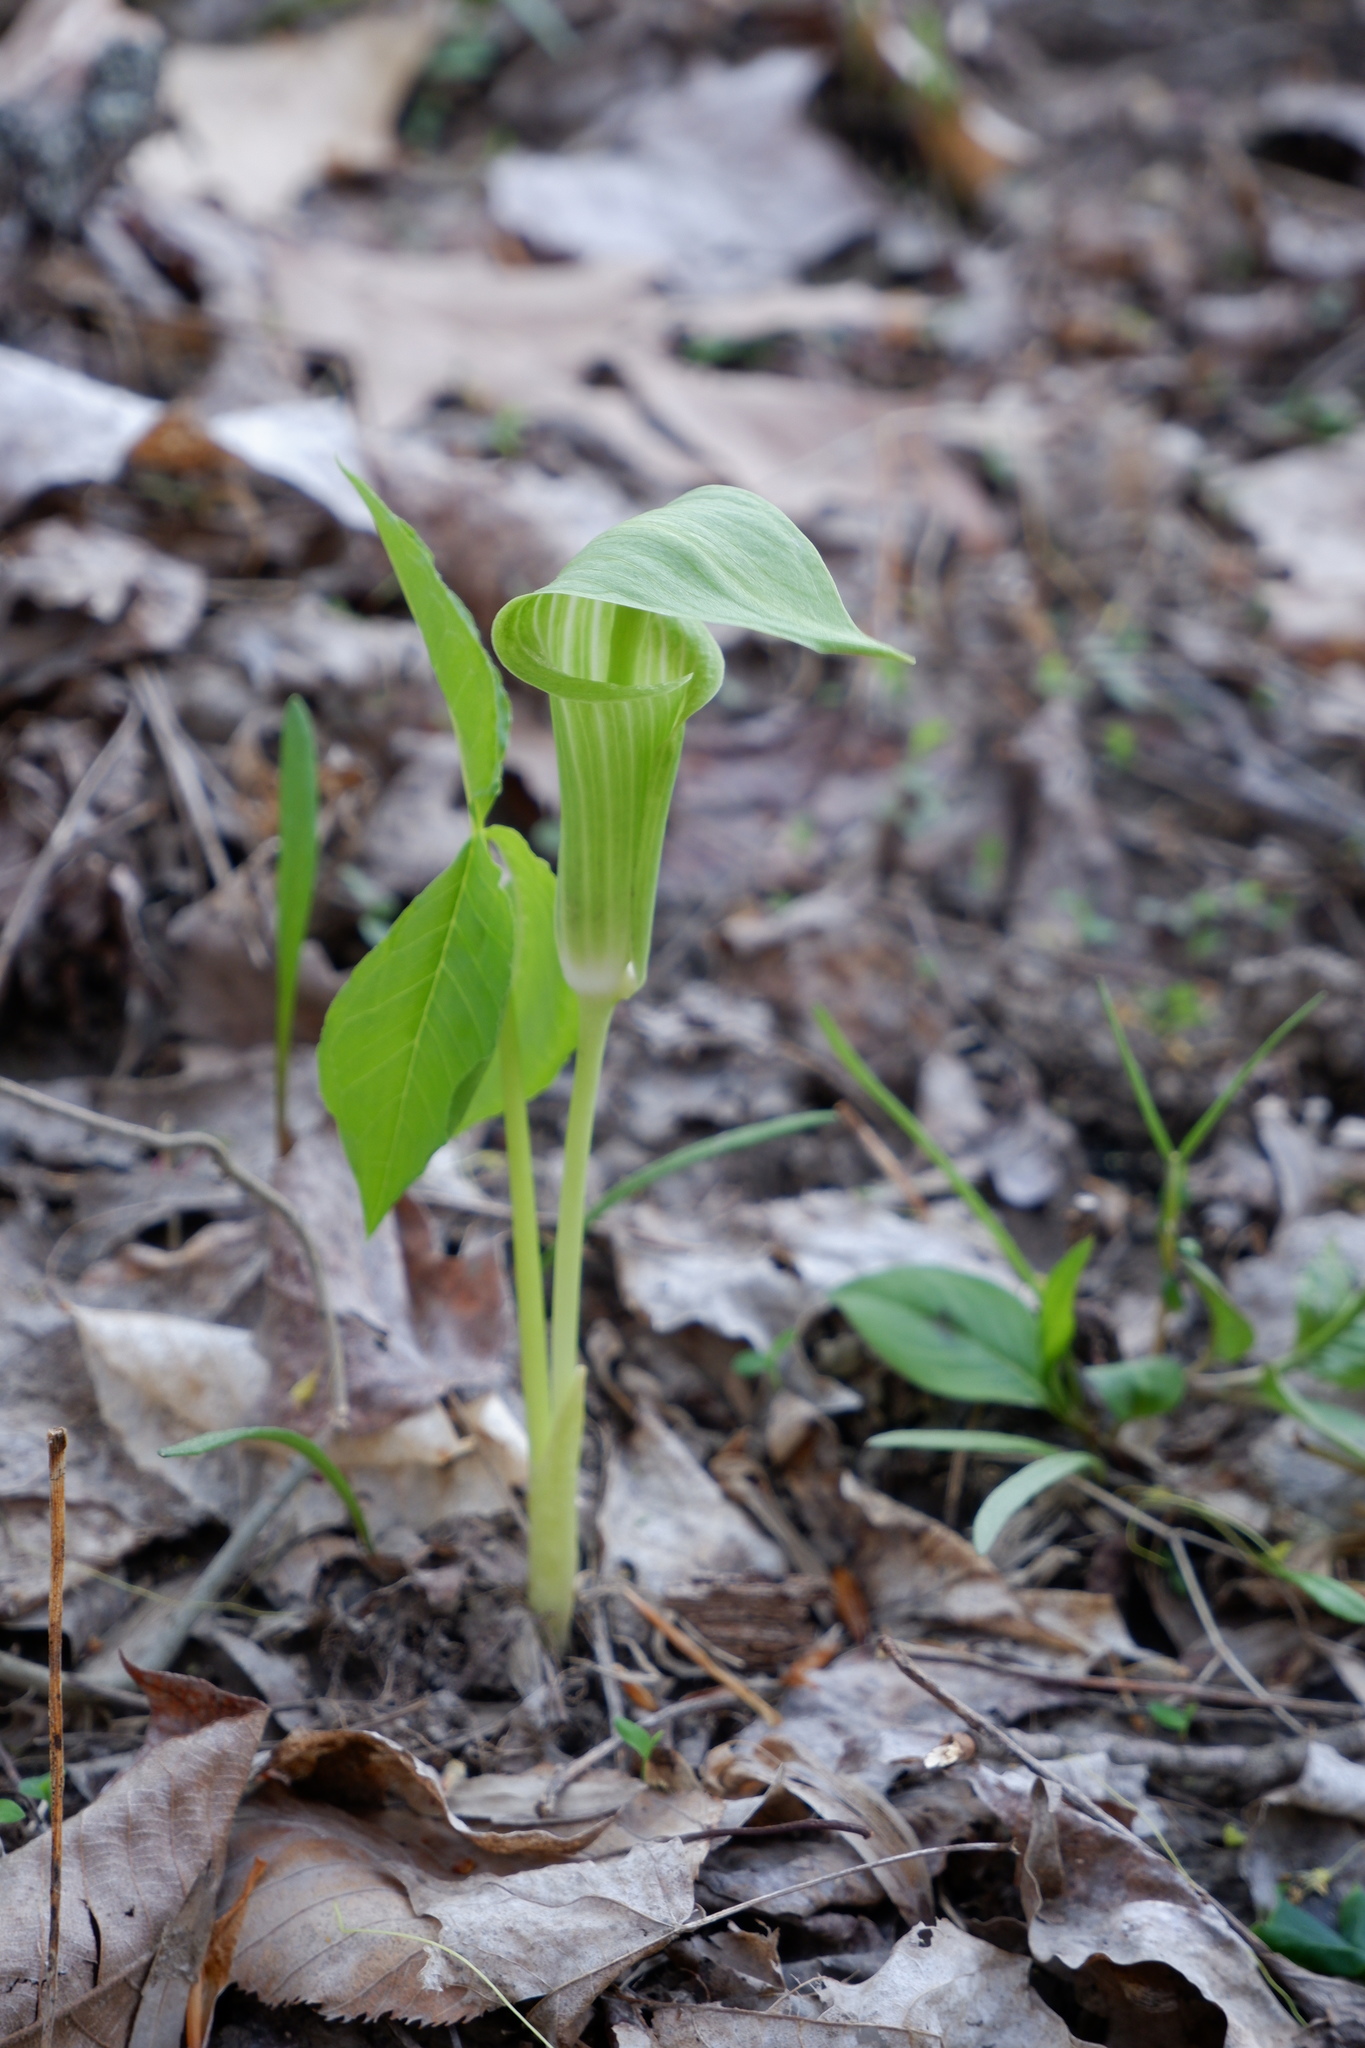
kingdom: Plantae
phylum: Tracheophyta
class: Liliopsida
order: Alismatales
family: Araceae
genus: Arisaema
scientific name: Arisaema triphyllum
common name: Jack-in-the-pulpit
